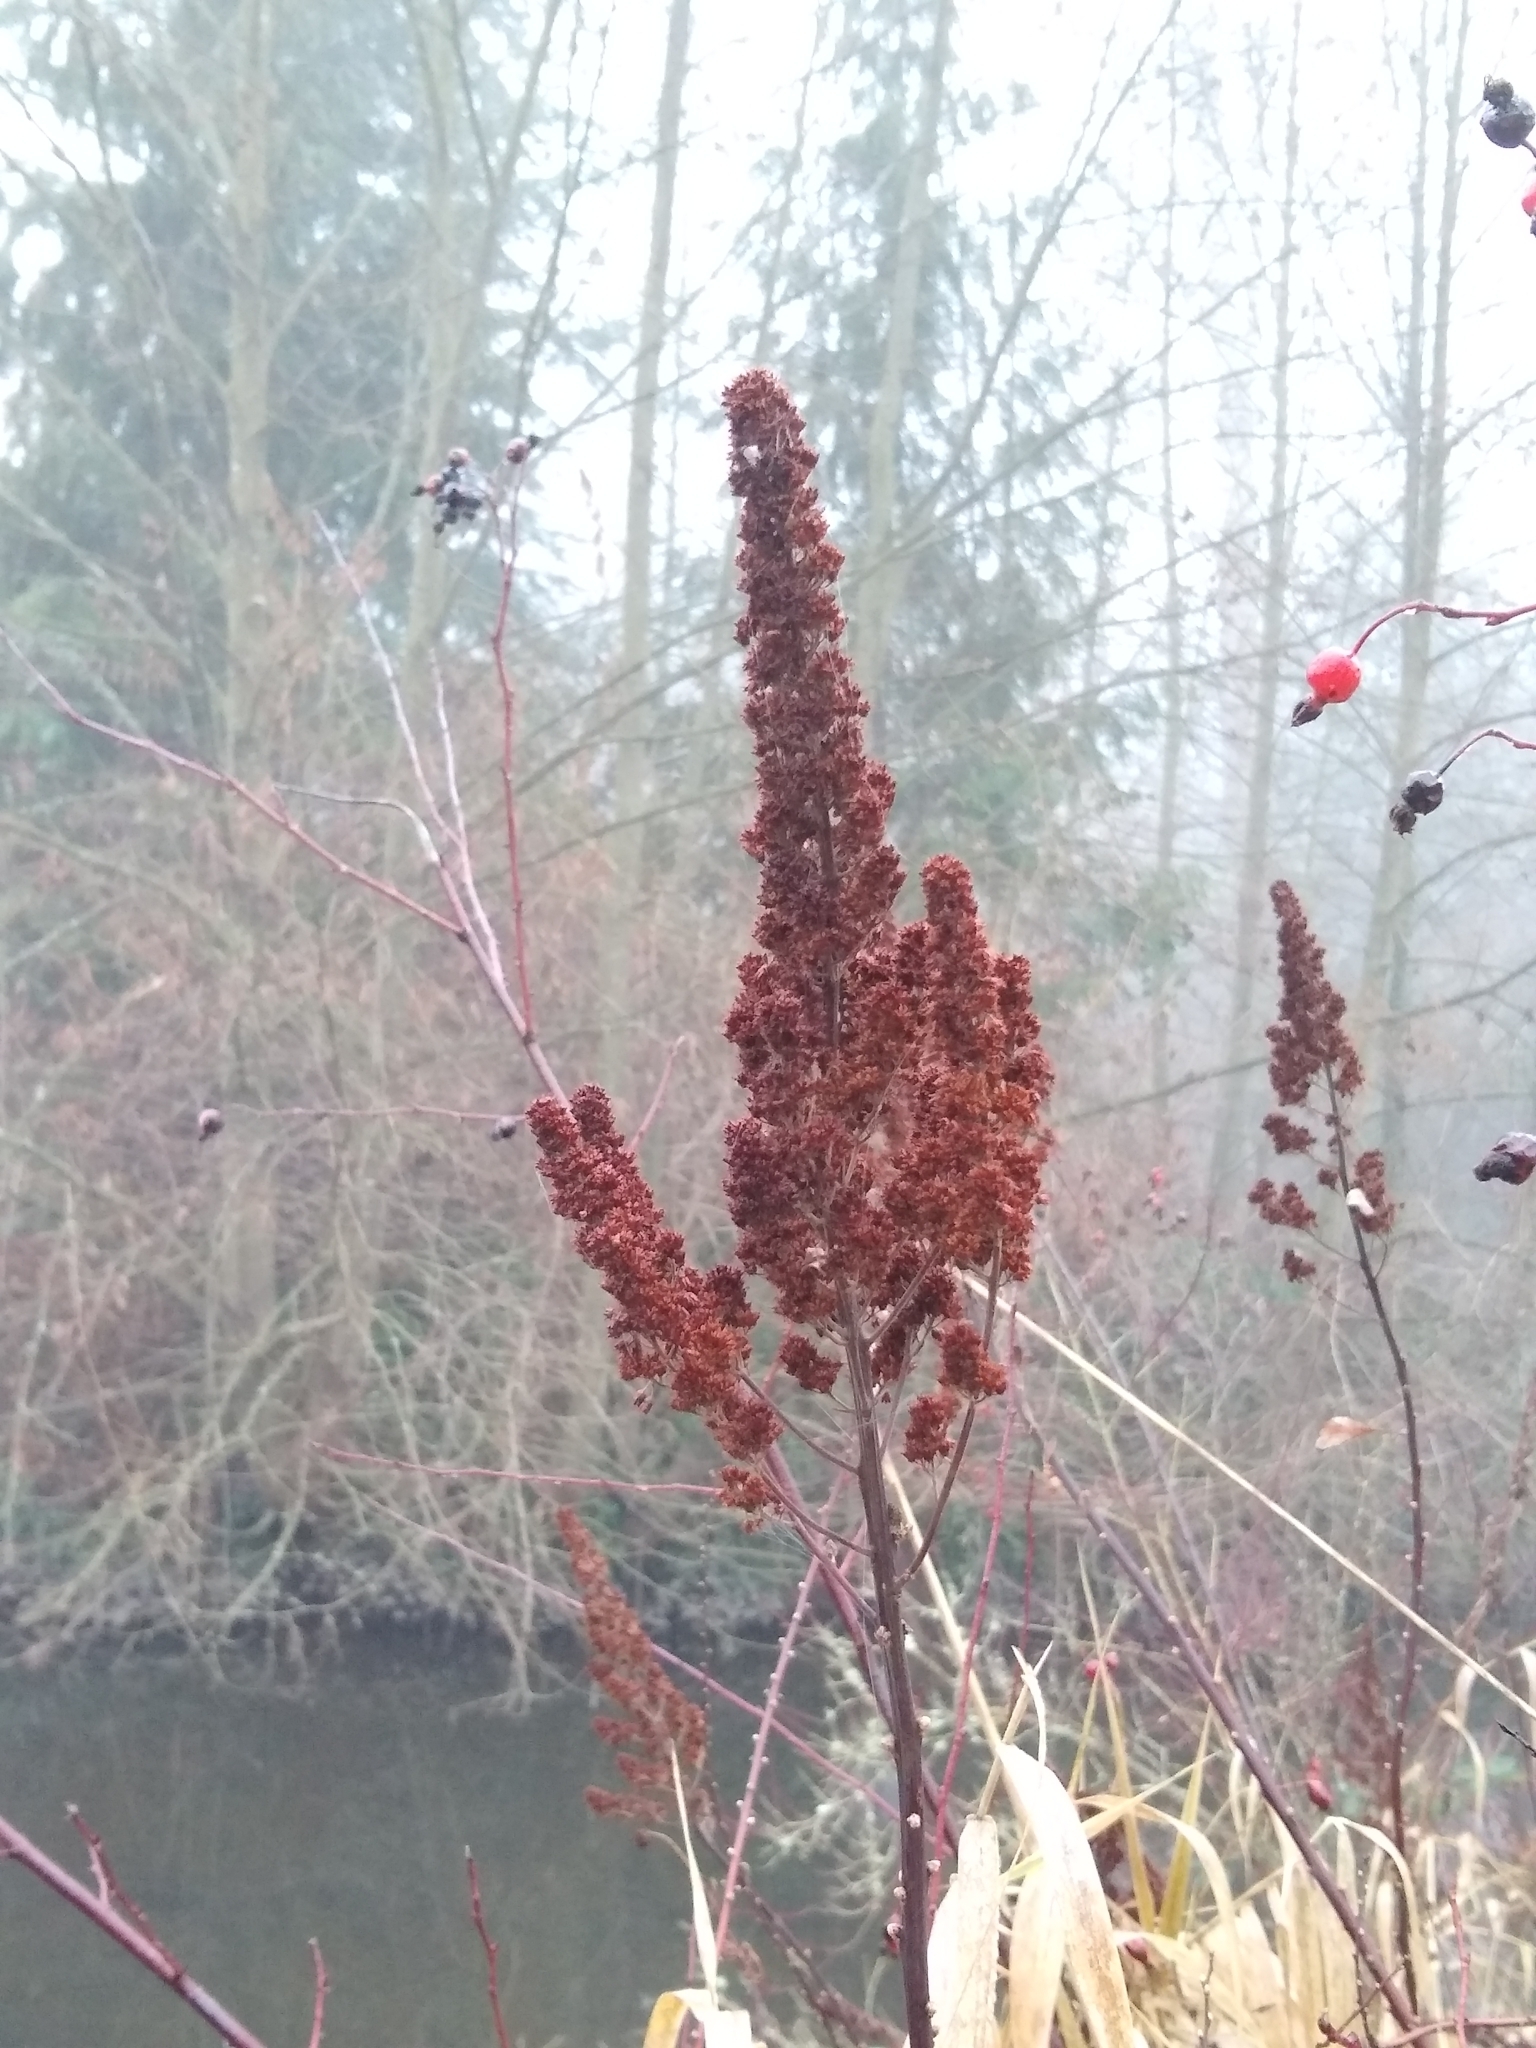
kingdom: Plantae
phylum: Tracheophyta
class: Magnoliopsida
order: Rosales
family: Rosaceae
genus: Spiraea
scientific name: Spiraea douglasii
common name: Steeplebush
